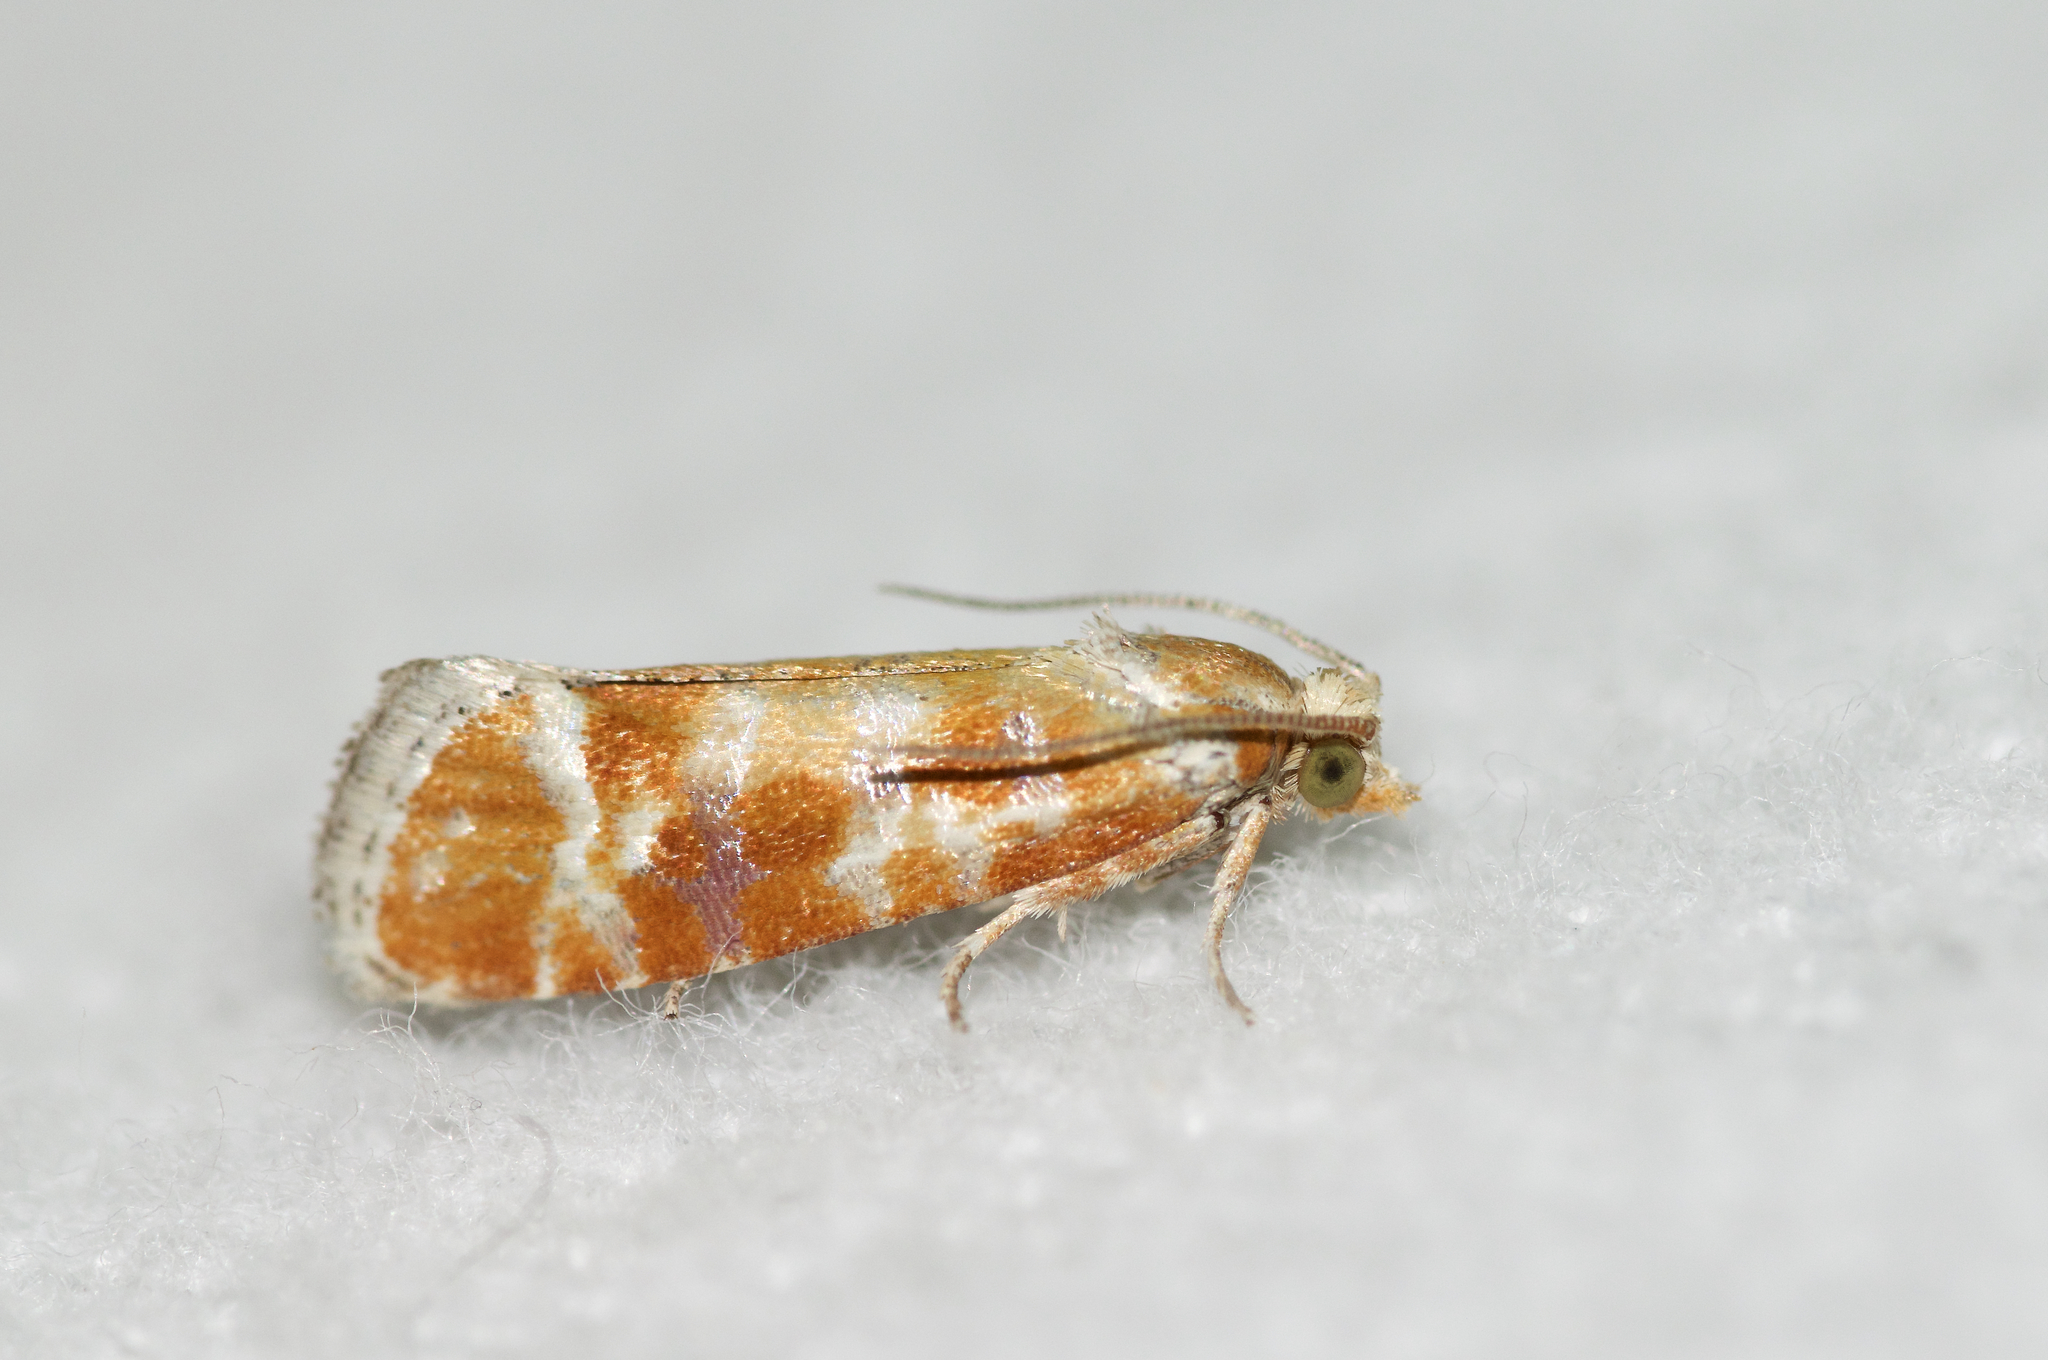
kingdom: Animalia
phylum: Arthropoda
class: Insecta
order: Lepidoptera
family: Tortricidae
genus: Rhyacionia
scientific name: Rhyacionia buoliana
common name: European pine shoot moth
